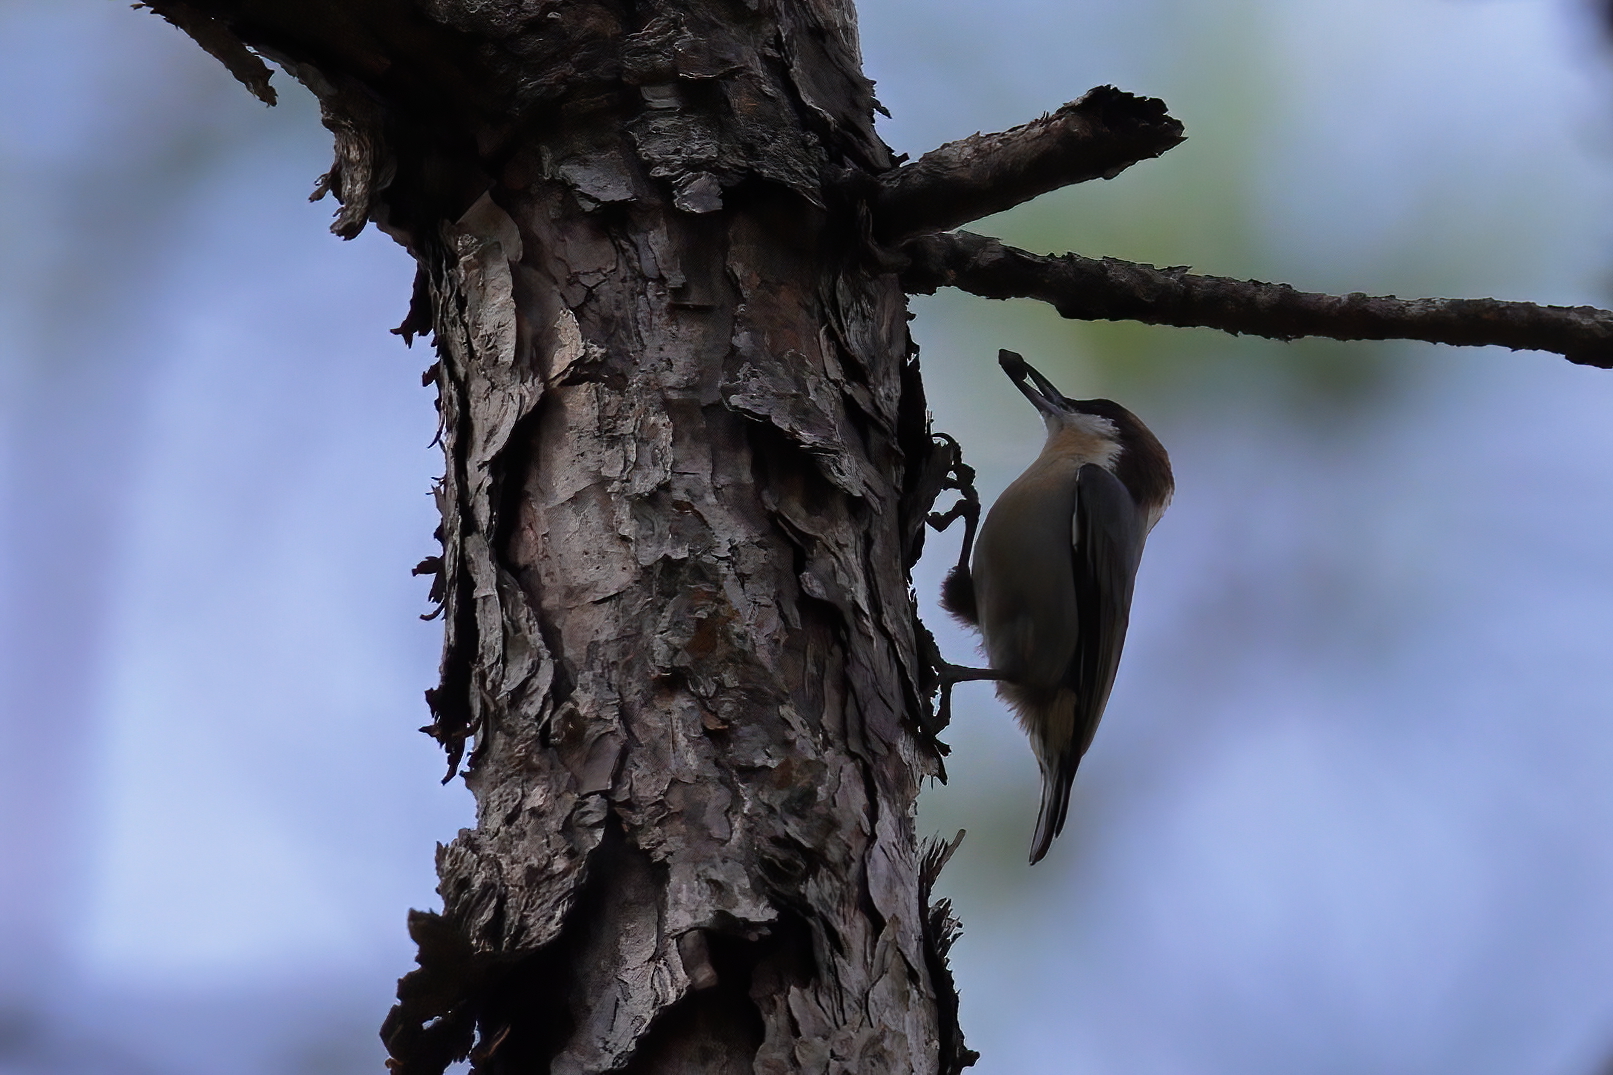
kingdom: Animalia
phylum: Chordata
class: Aves
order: Passeriformes
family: Sittidae
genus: Sitta
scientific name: Sitta pusilla
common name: Brown-headed nuthatch
